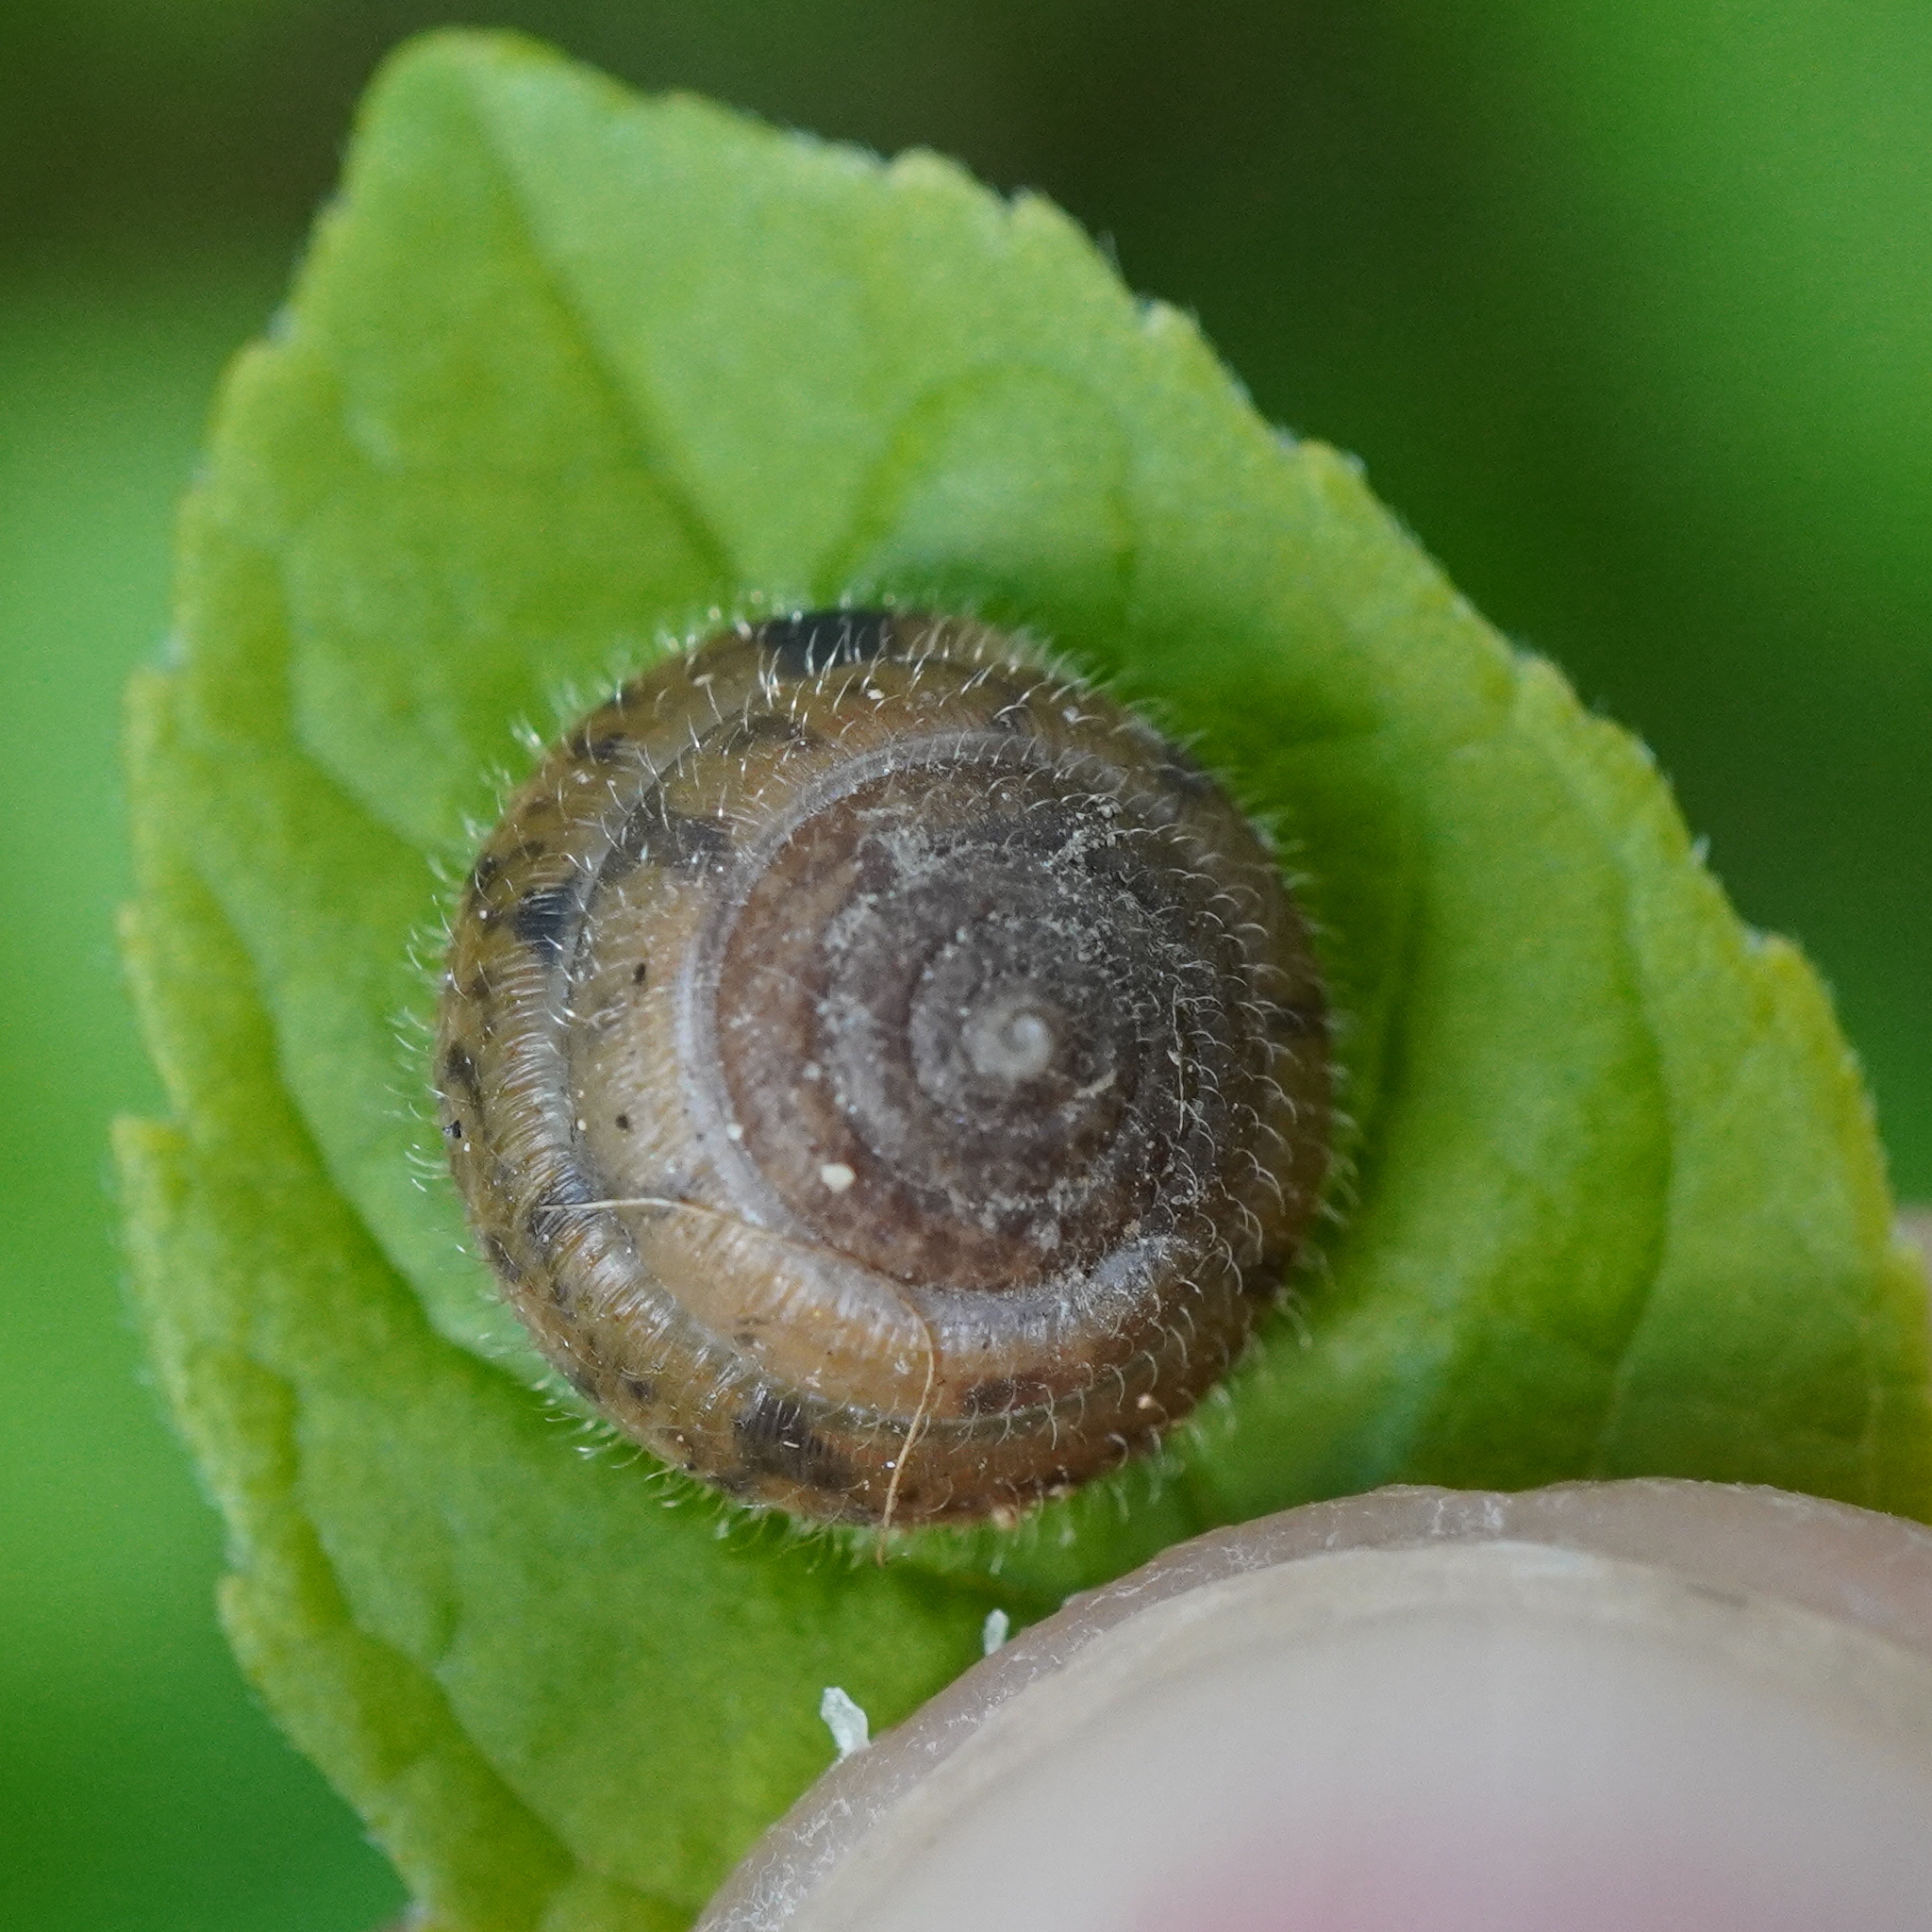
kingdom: Animalia
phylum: Mollusca
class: Gastropoda
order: Stylommatophora
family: Hygromiidae
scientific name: Hygromiidae
